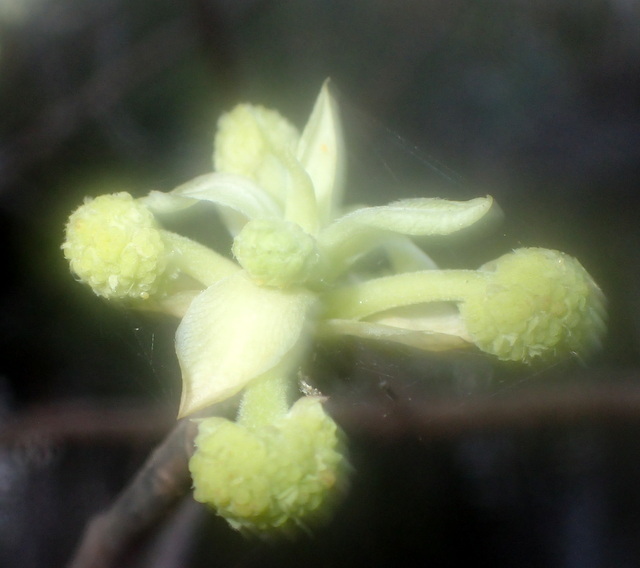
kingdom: Plantae
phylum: Tracheophyta
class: Magnoliopsida
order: Cornales
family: Nyssaceae
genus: Nyssa
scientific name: Nyssa ogeche
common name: Ogeechee tupelo
